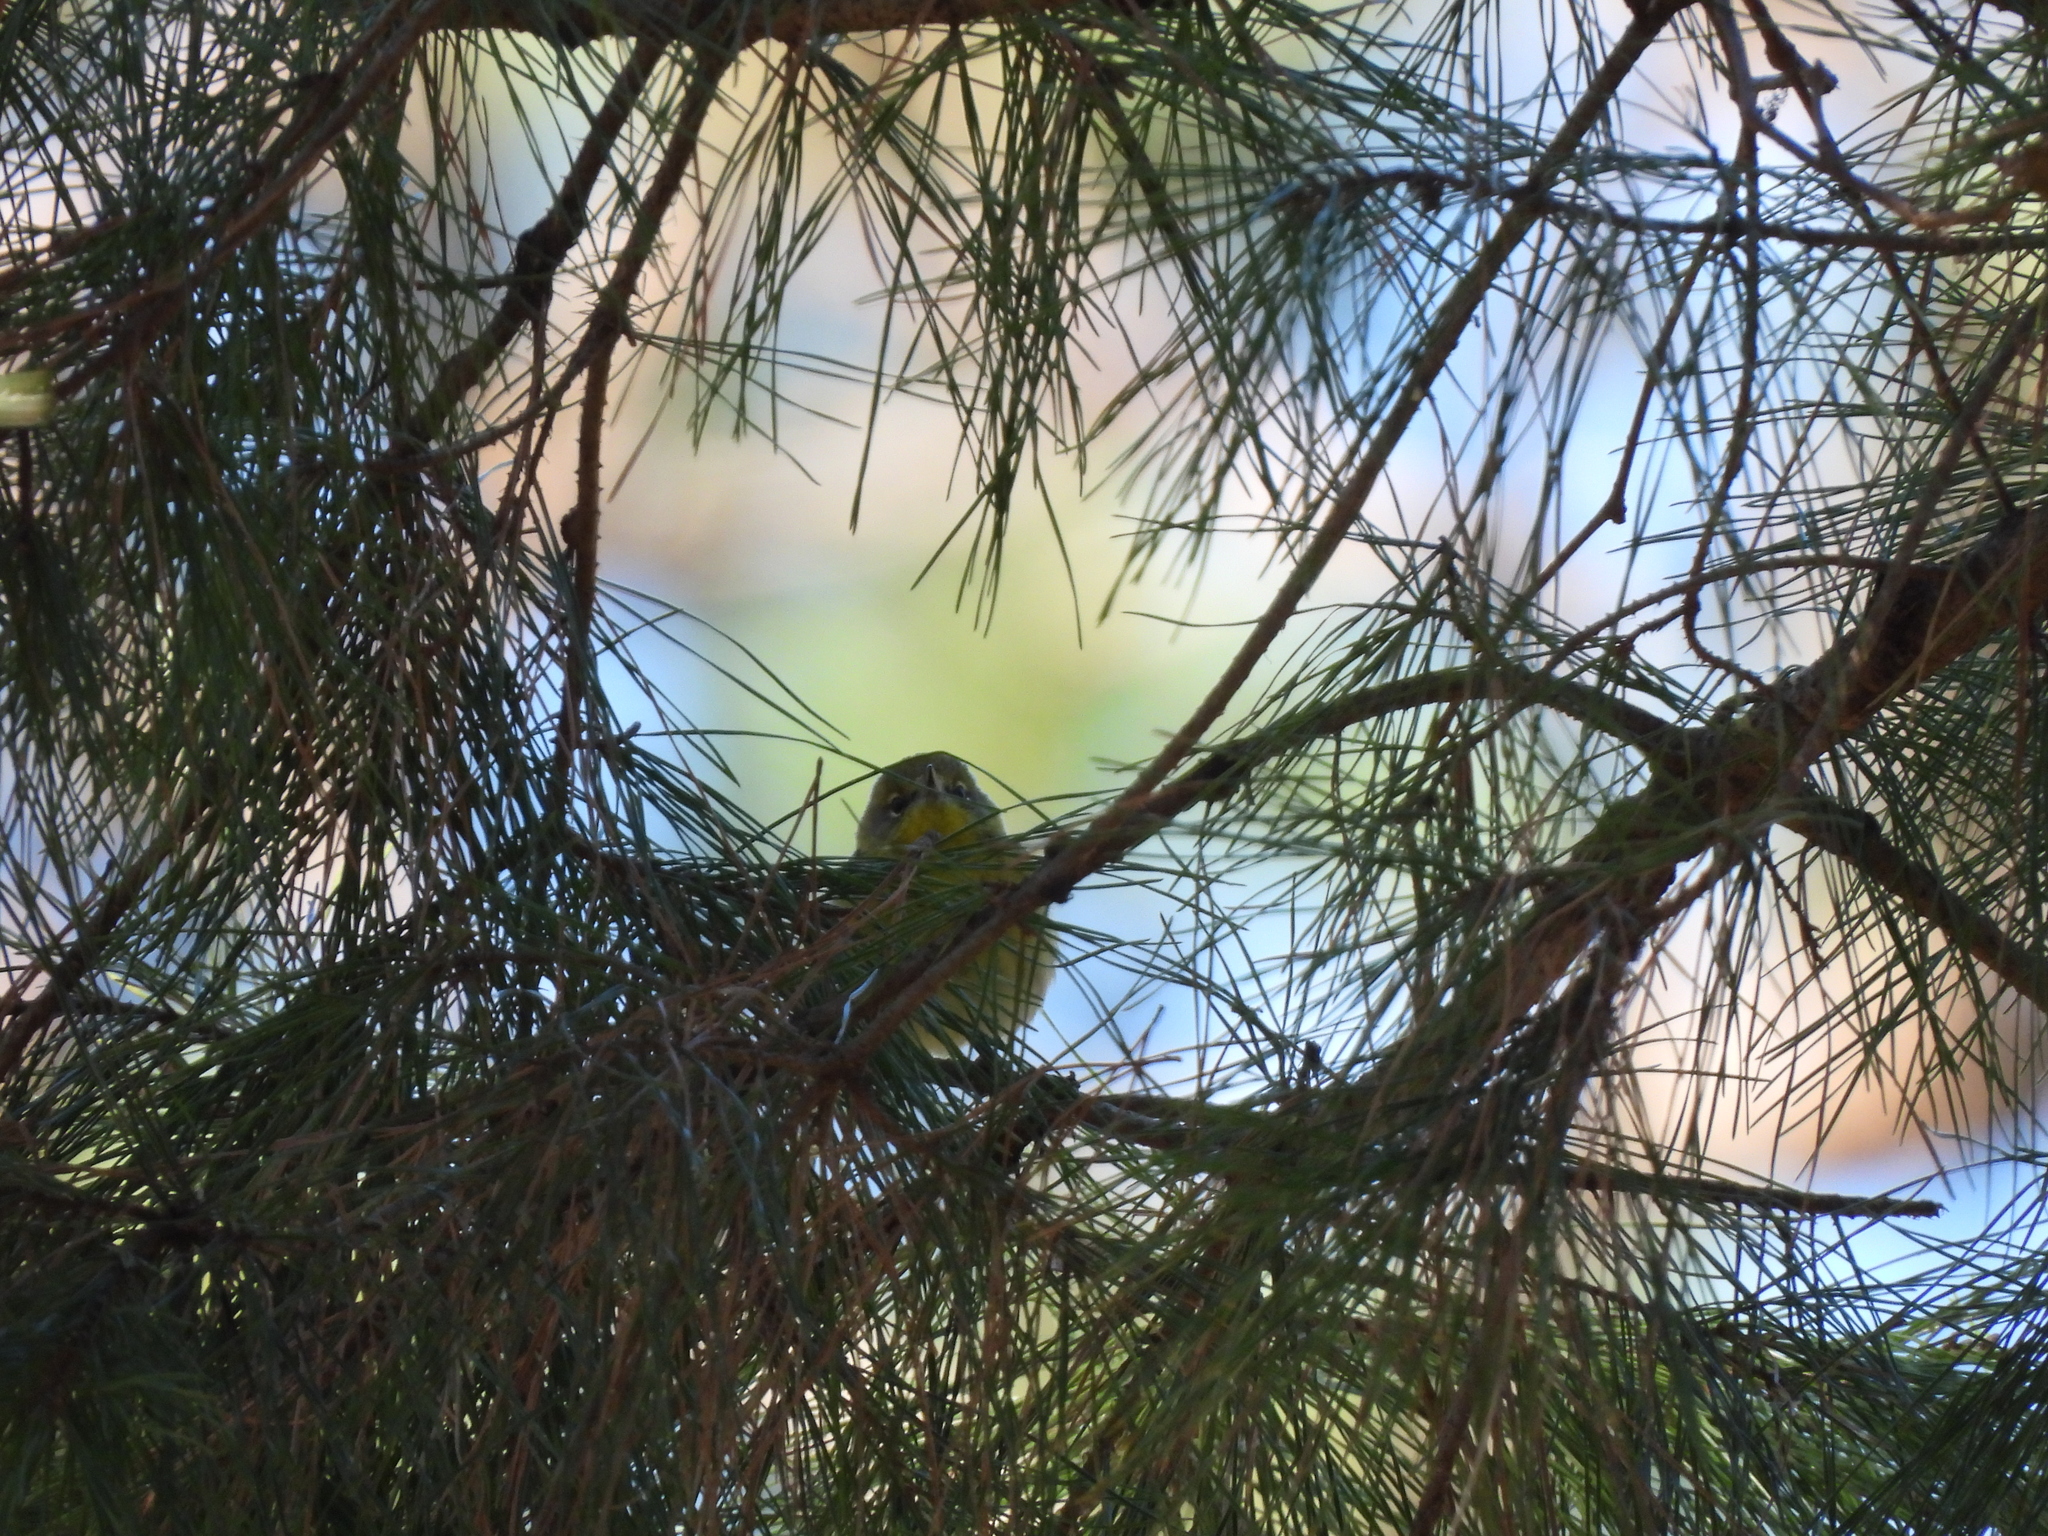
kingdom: Animalia
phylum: Chordata
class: Aves
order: Passeriformes
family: Parulidae
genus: Setophaga
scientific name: Setophaga pinus
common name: Pine warbler
